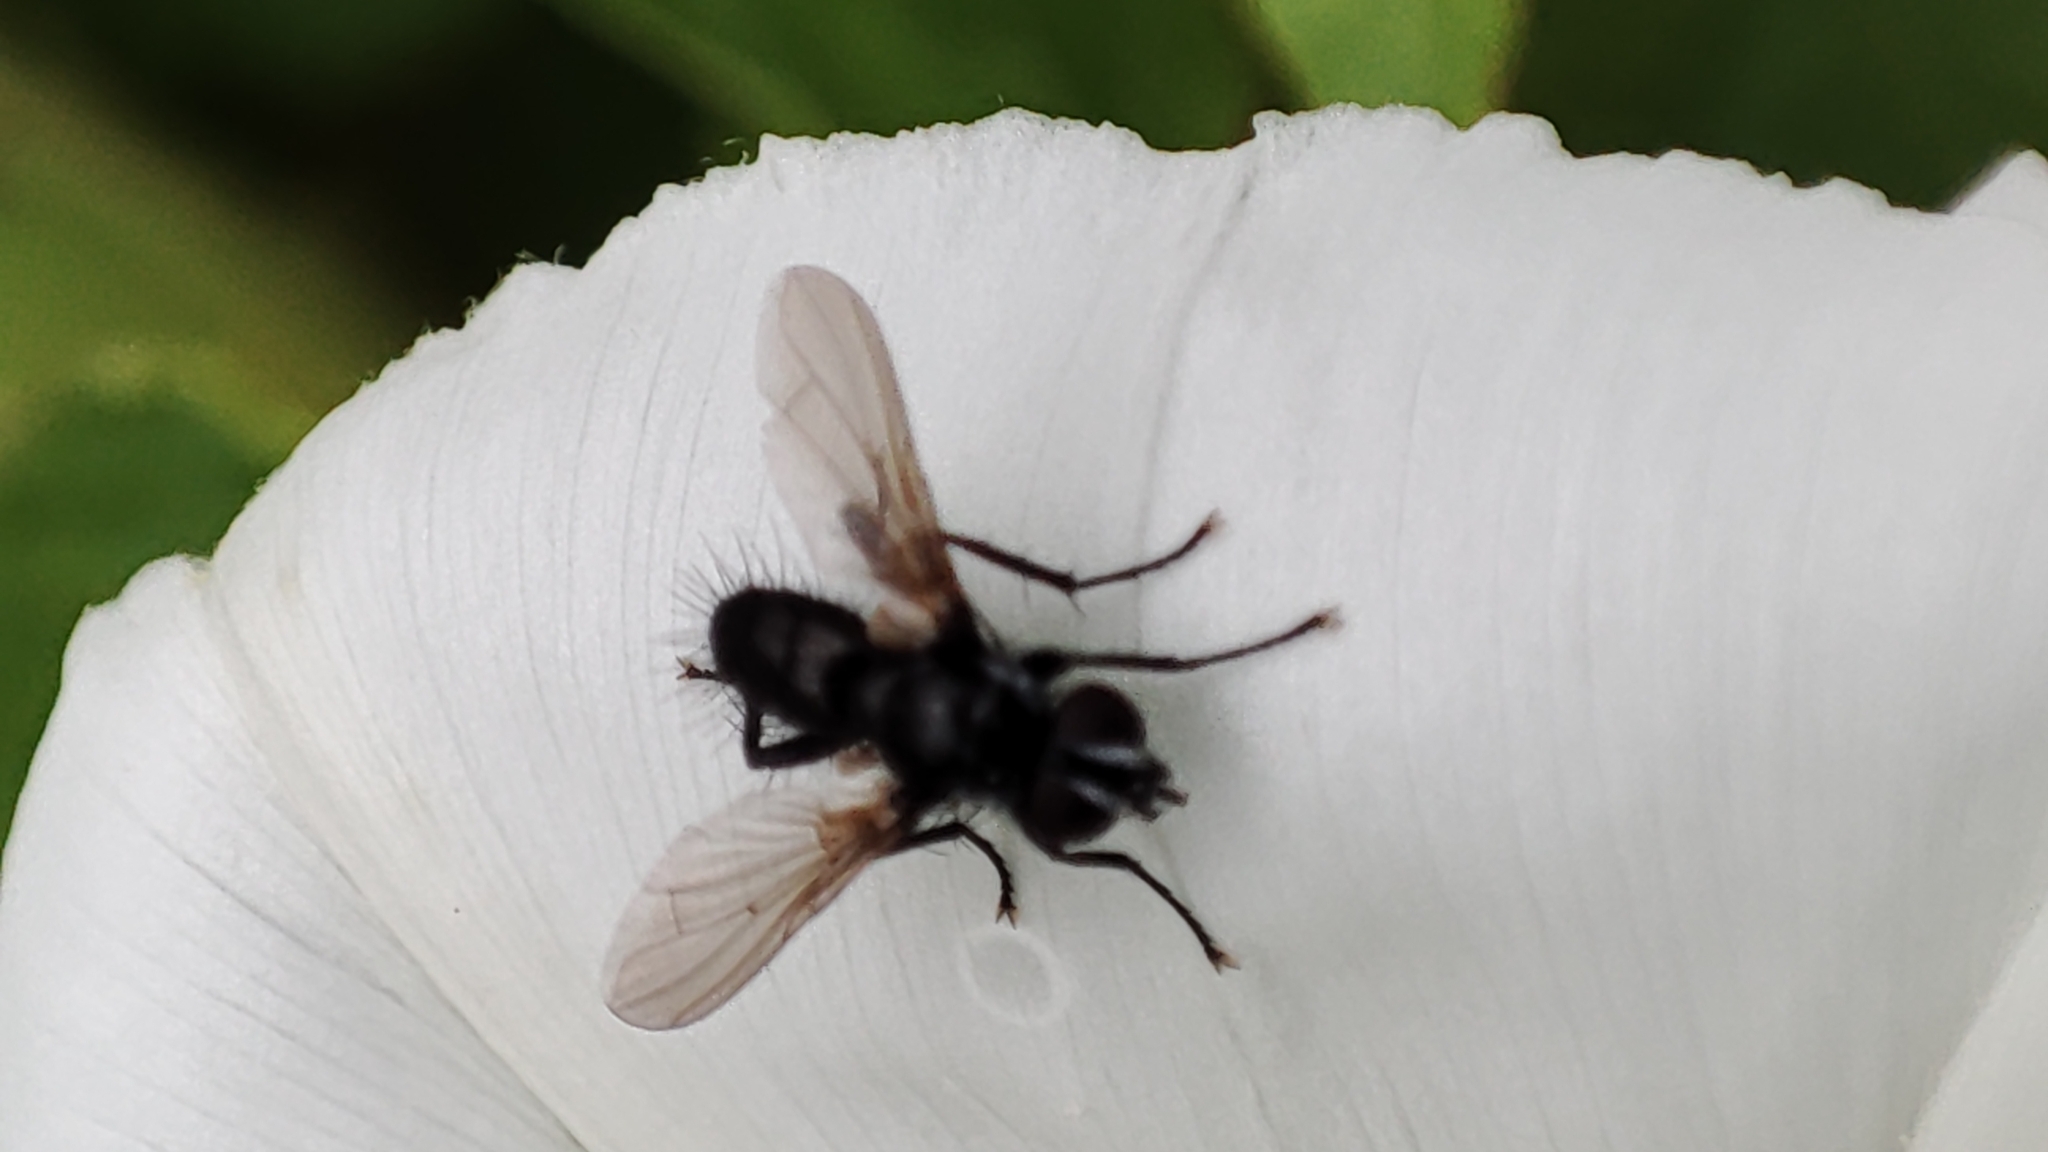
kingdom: Animalia
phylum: Arthropoda
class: Insecta
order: Diptera
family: Tachinidae
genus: Phania
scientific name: Phania funesta
